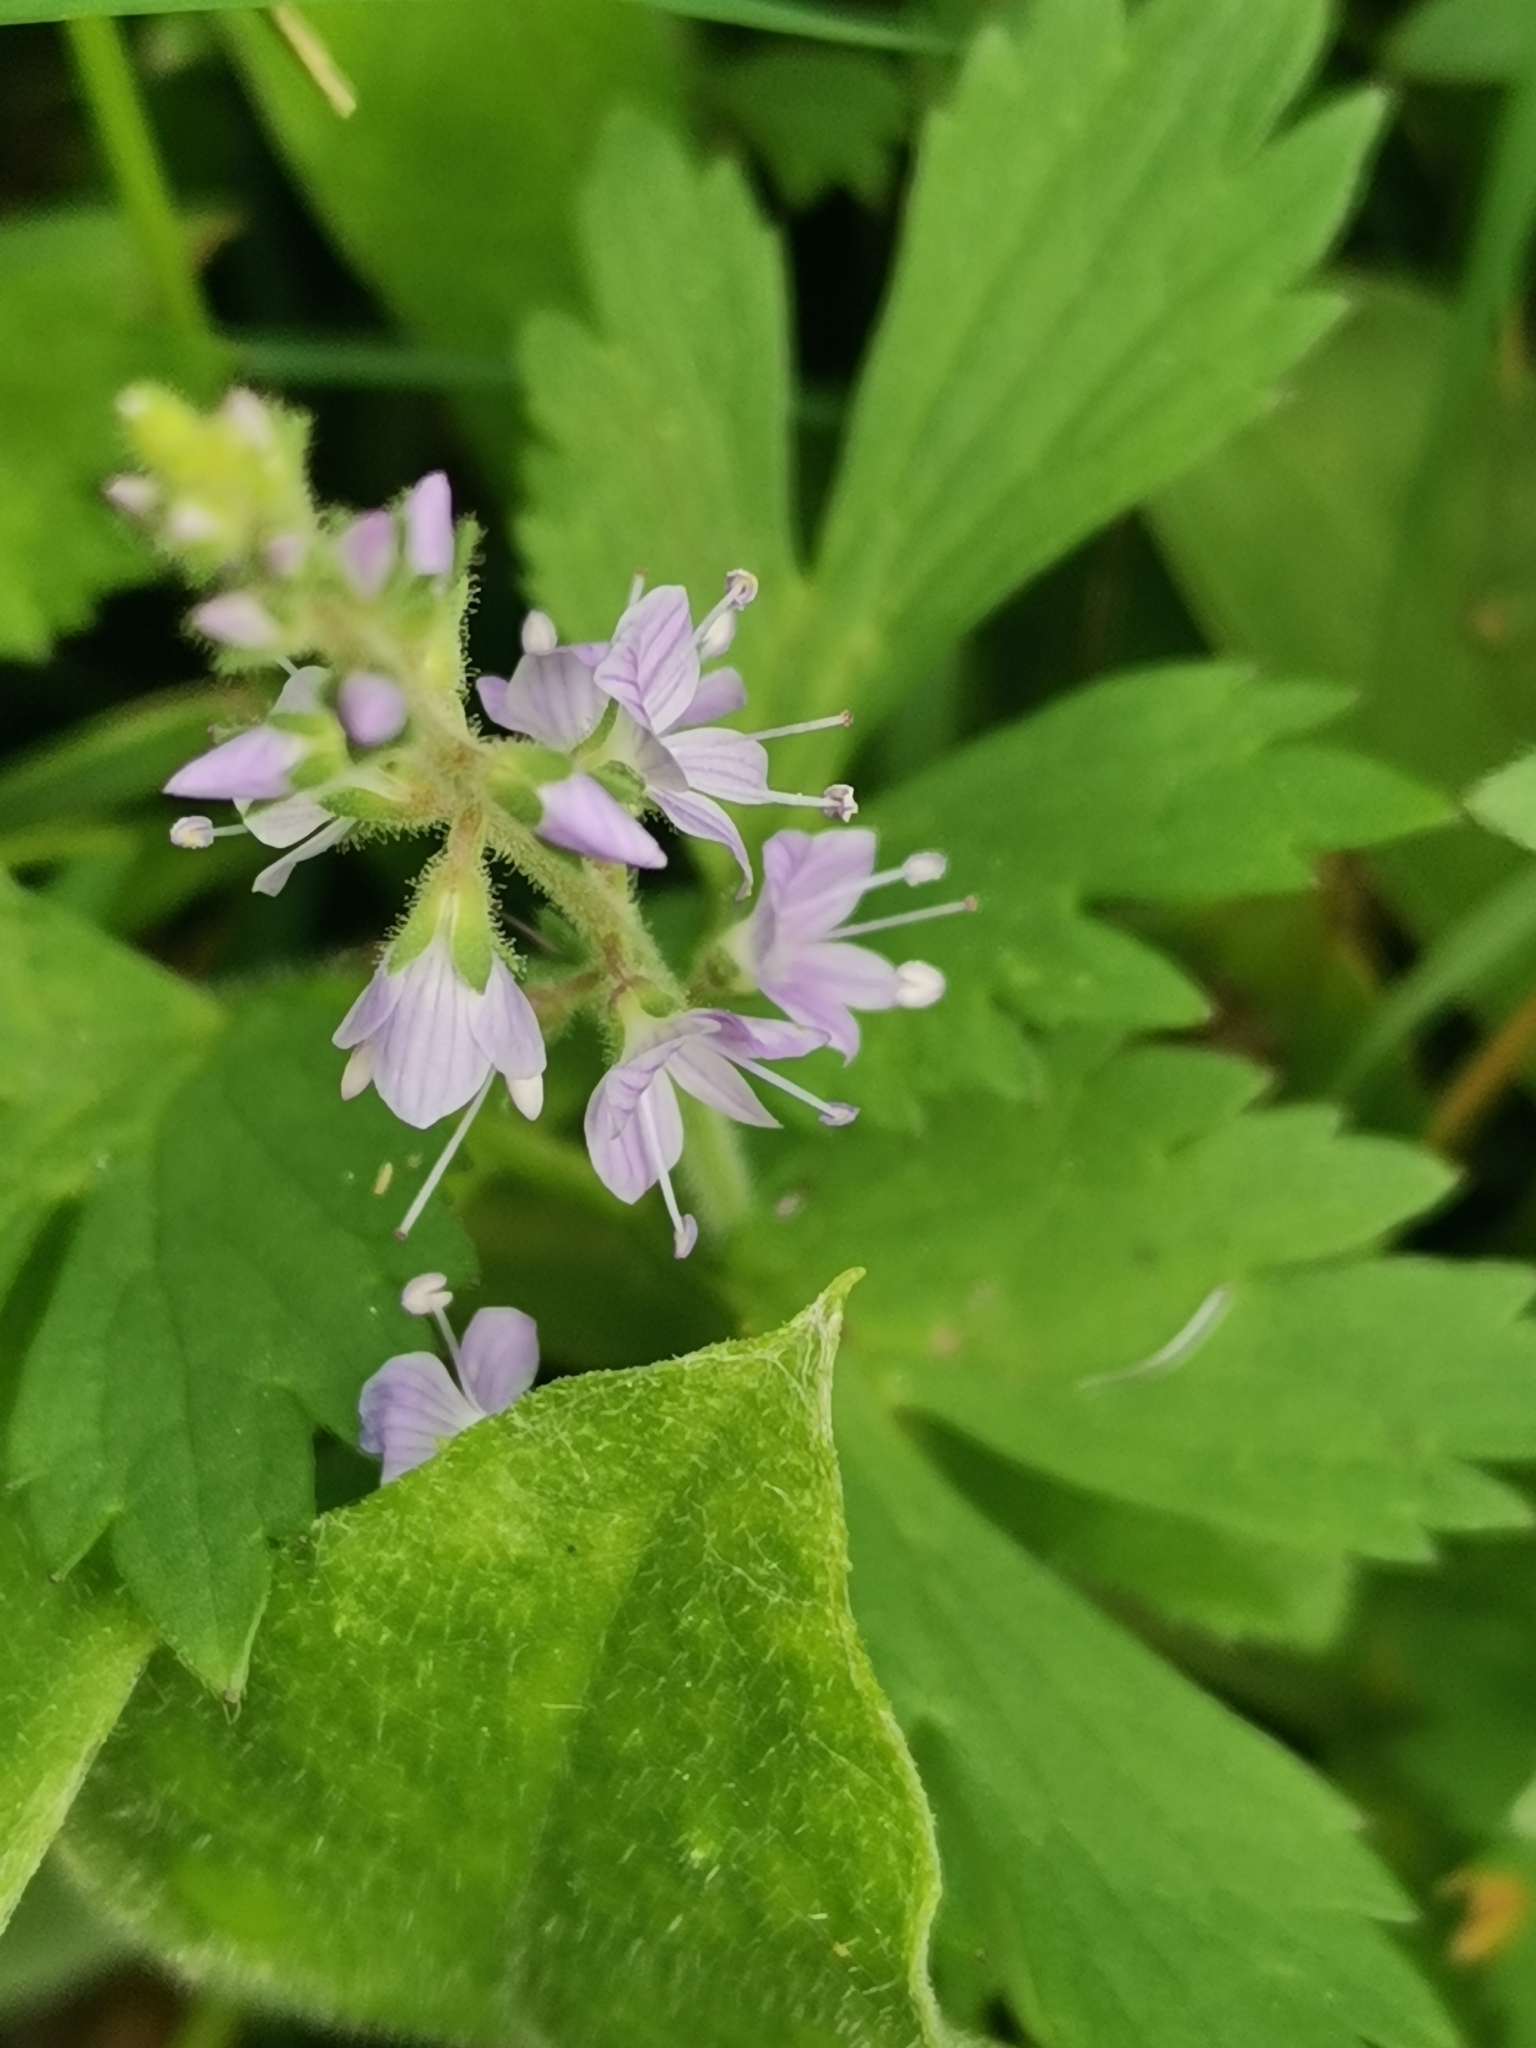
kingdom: Plantae
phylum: Tracheophyta
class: Magnoliopsida
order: Lamiales
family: Plantaginaceae
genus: Veronica
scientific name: Veronica officinalis
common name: Common speedwell
